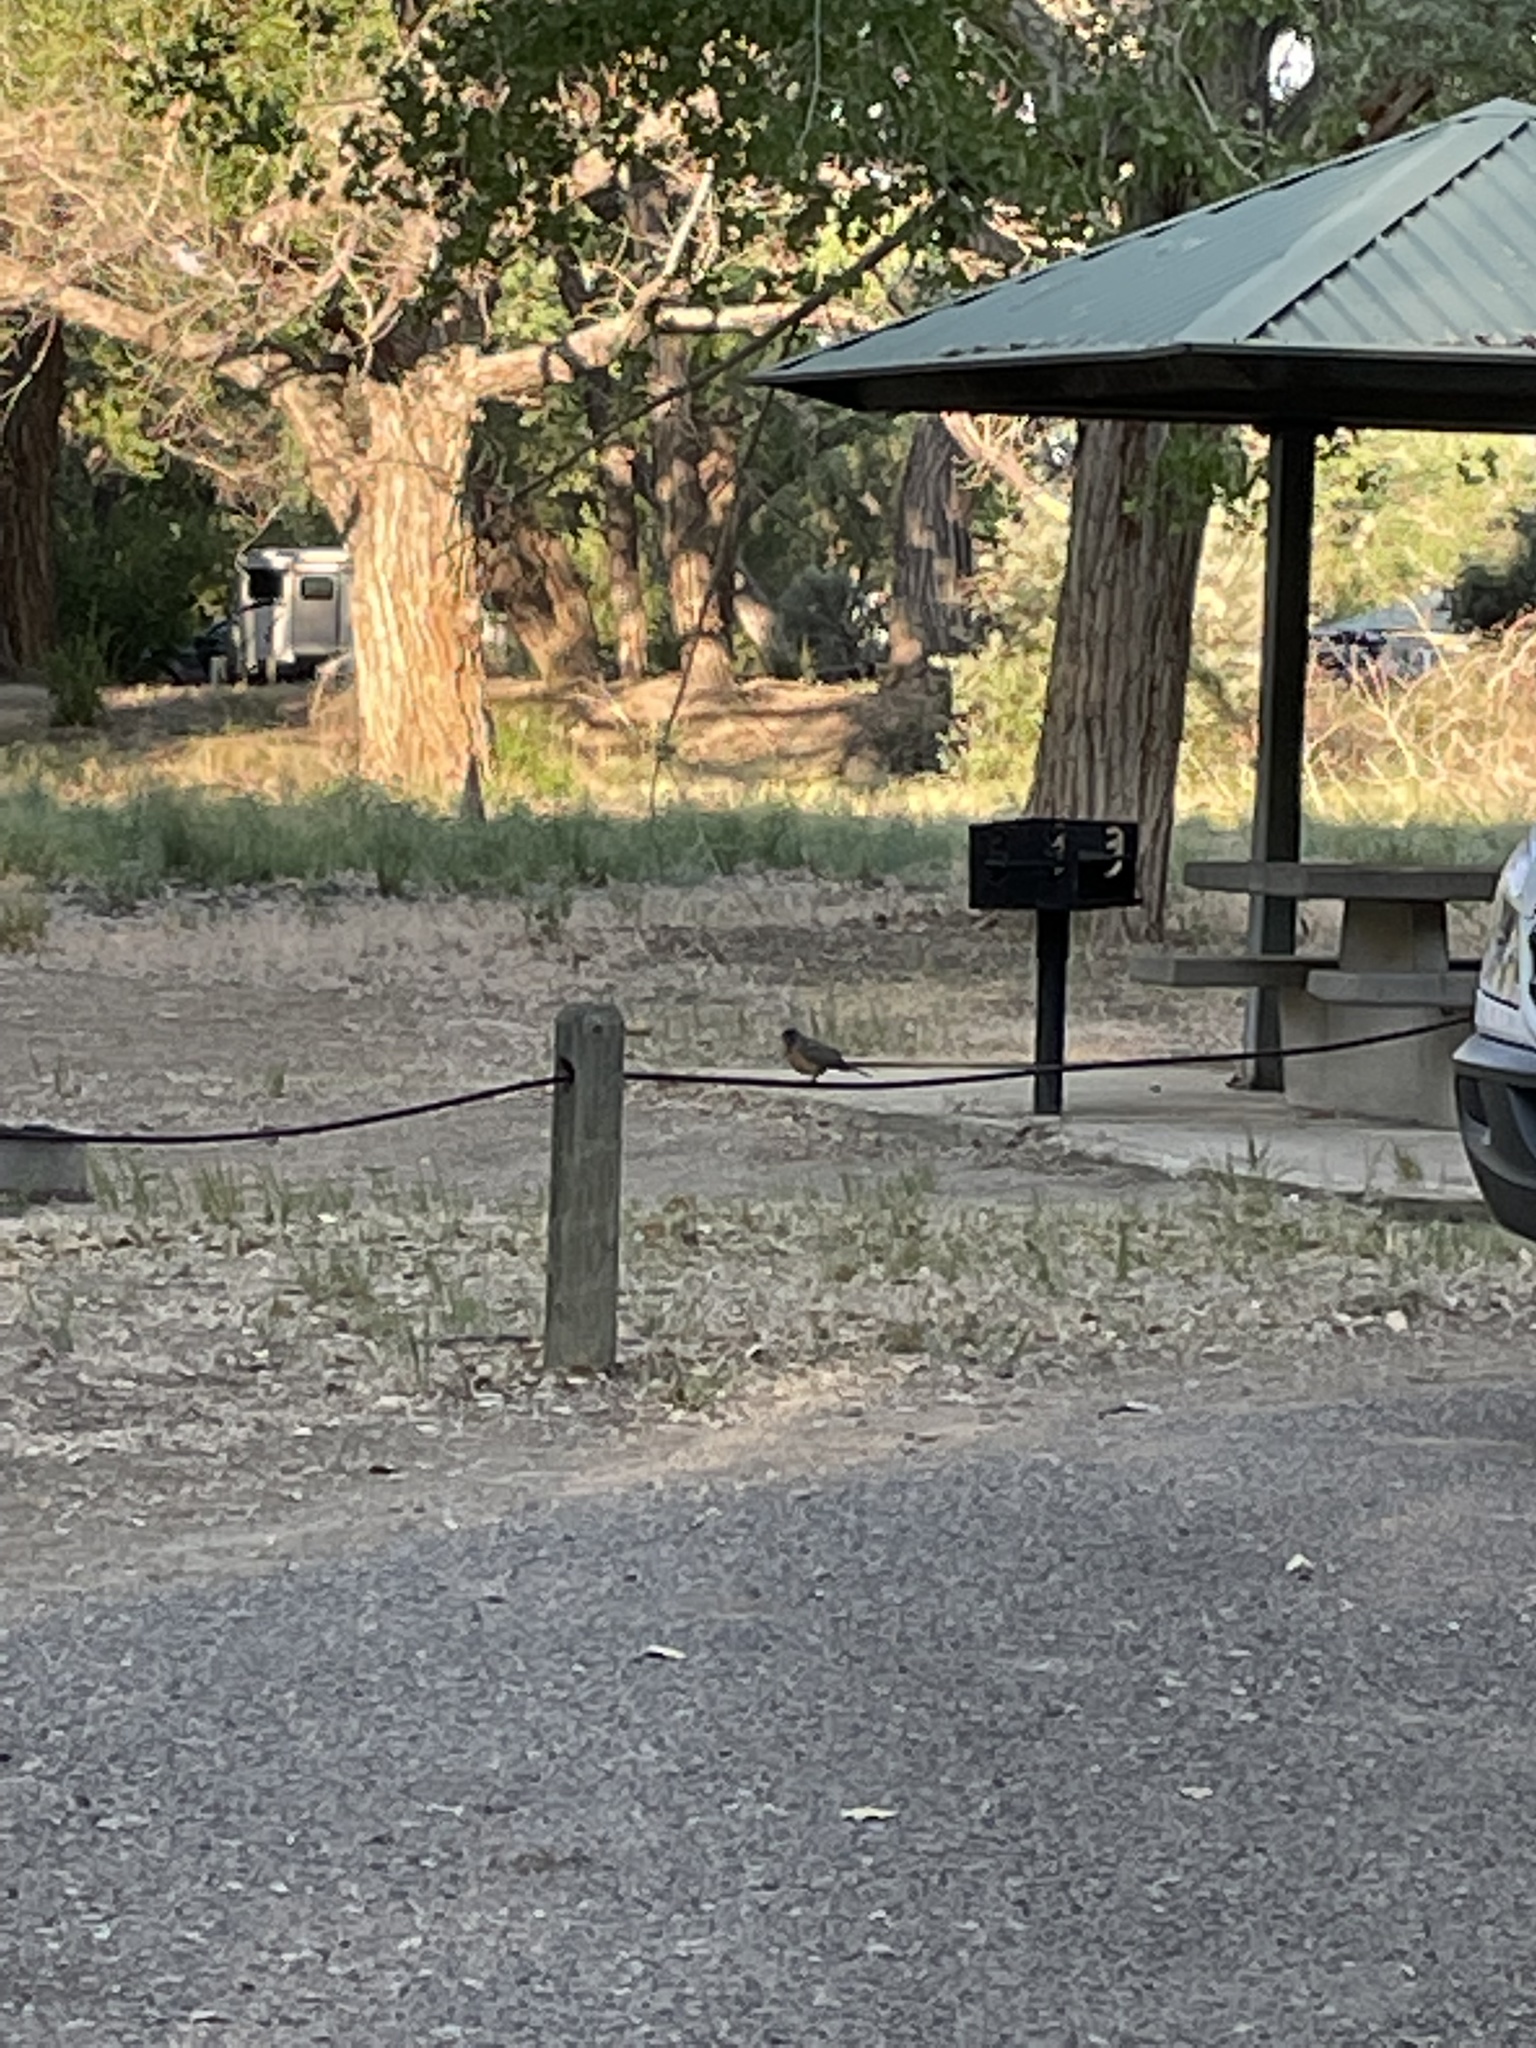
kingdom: Animalia
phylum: Chordata
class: Aves
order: Passeriformes
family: Turdidae
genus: Turdus
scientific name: Turdus migratorius
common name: American robin
